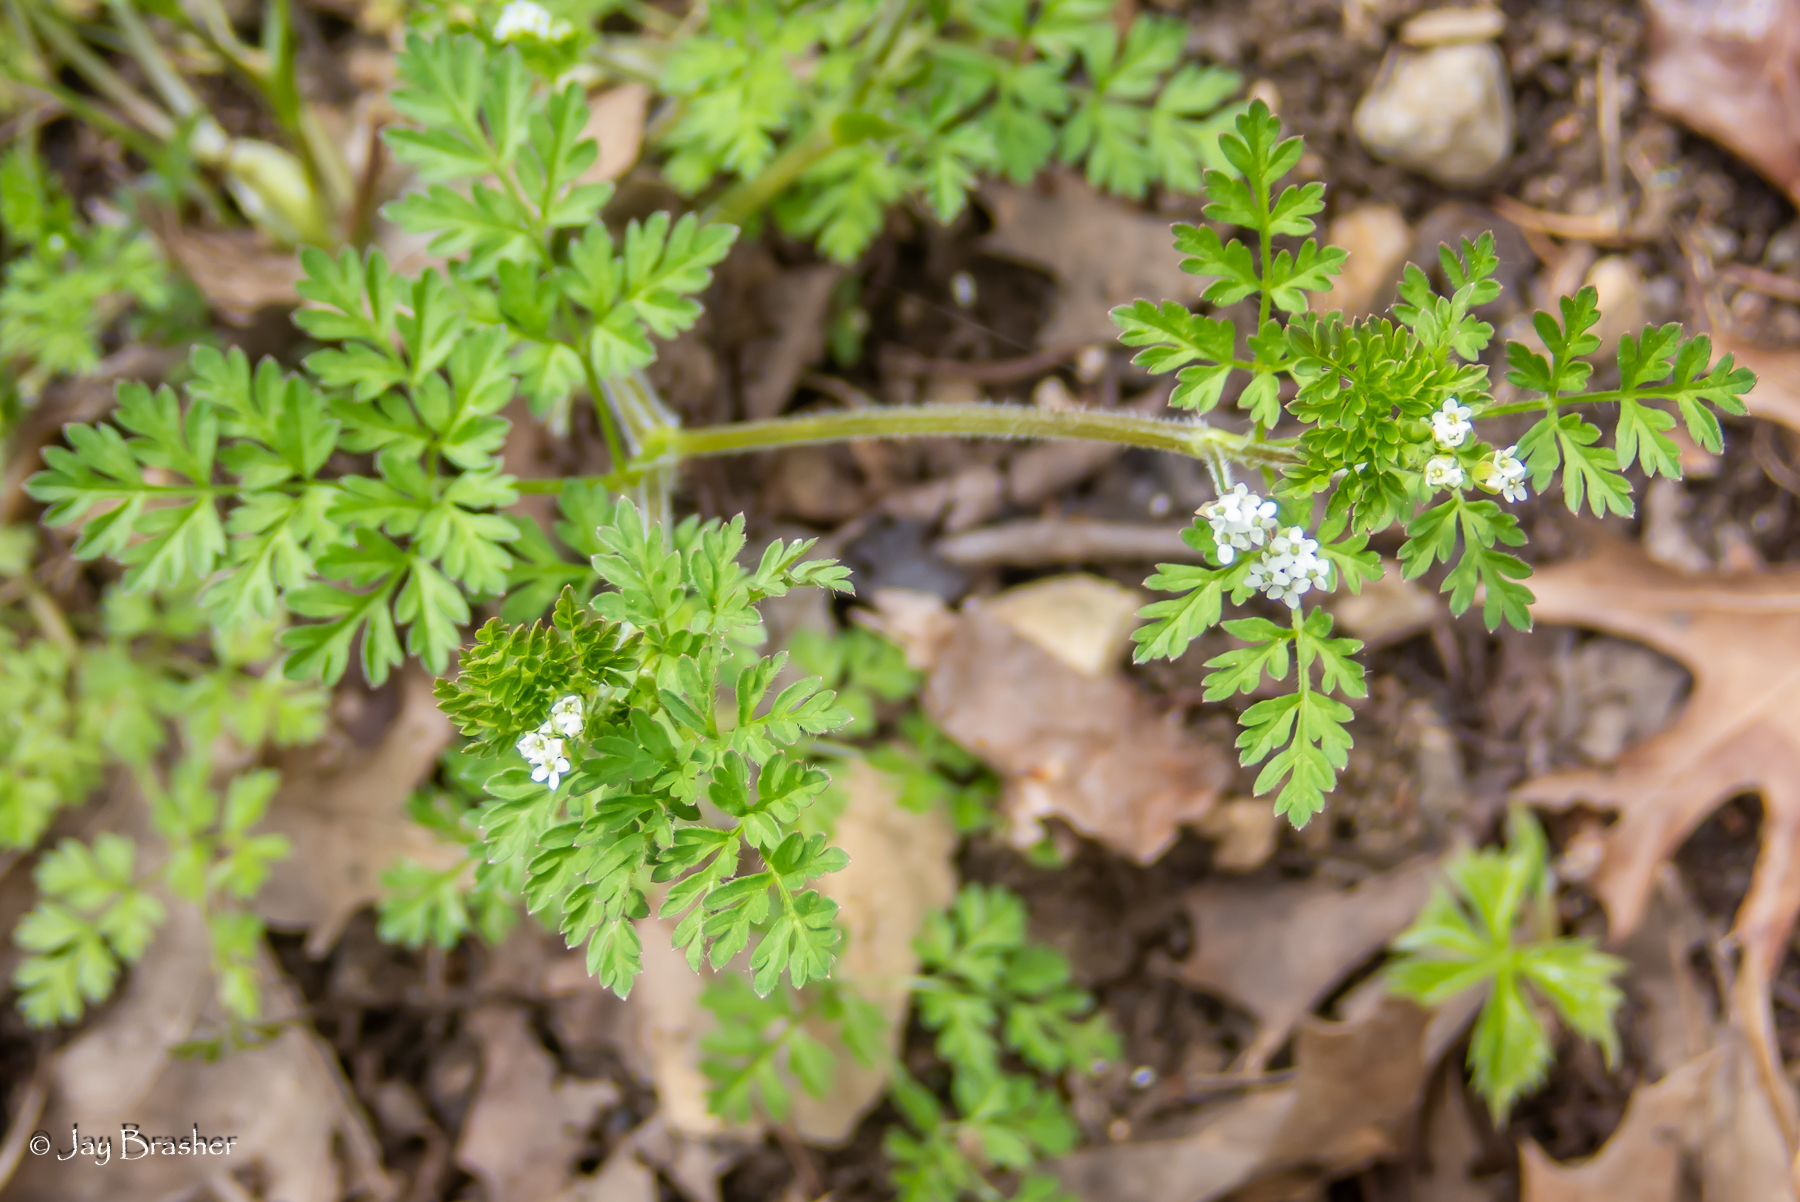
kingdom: Plantae
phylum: Tracheophyta
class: Magnoliopsida
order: Apiales
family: Apiaceae
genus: Chaerophyllum
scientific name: Chaerophyllum tainturieri
